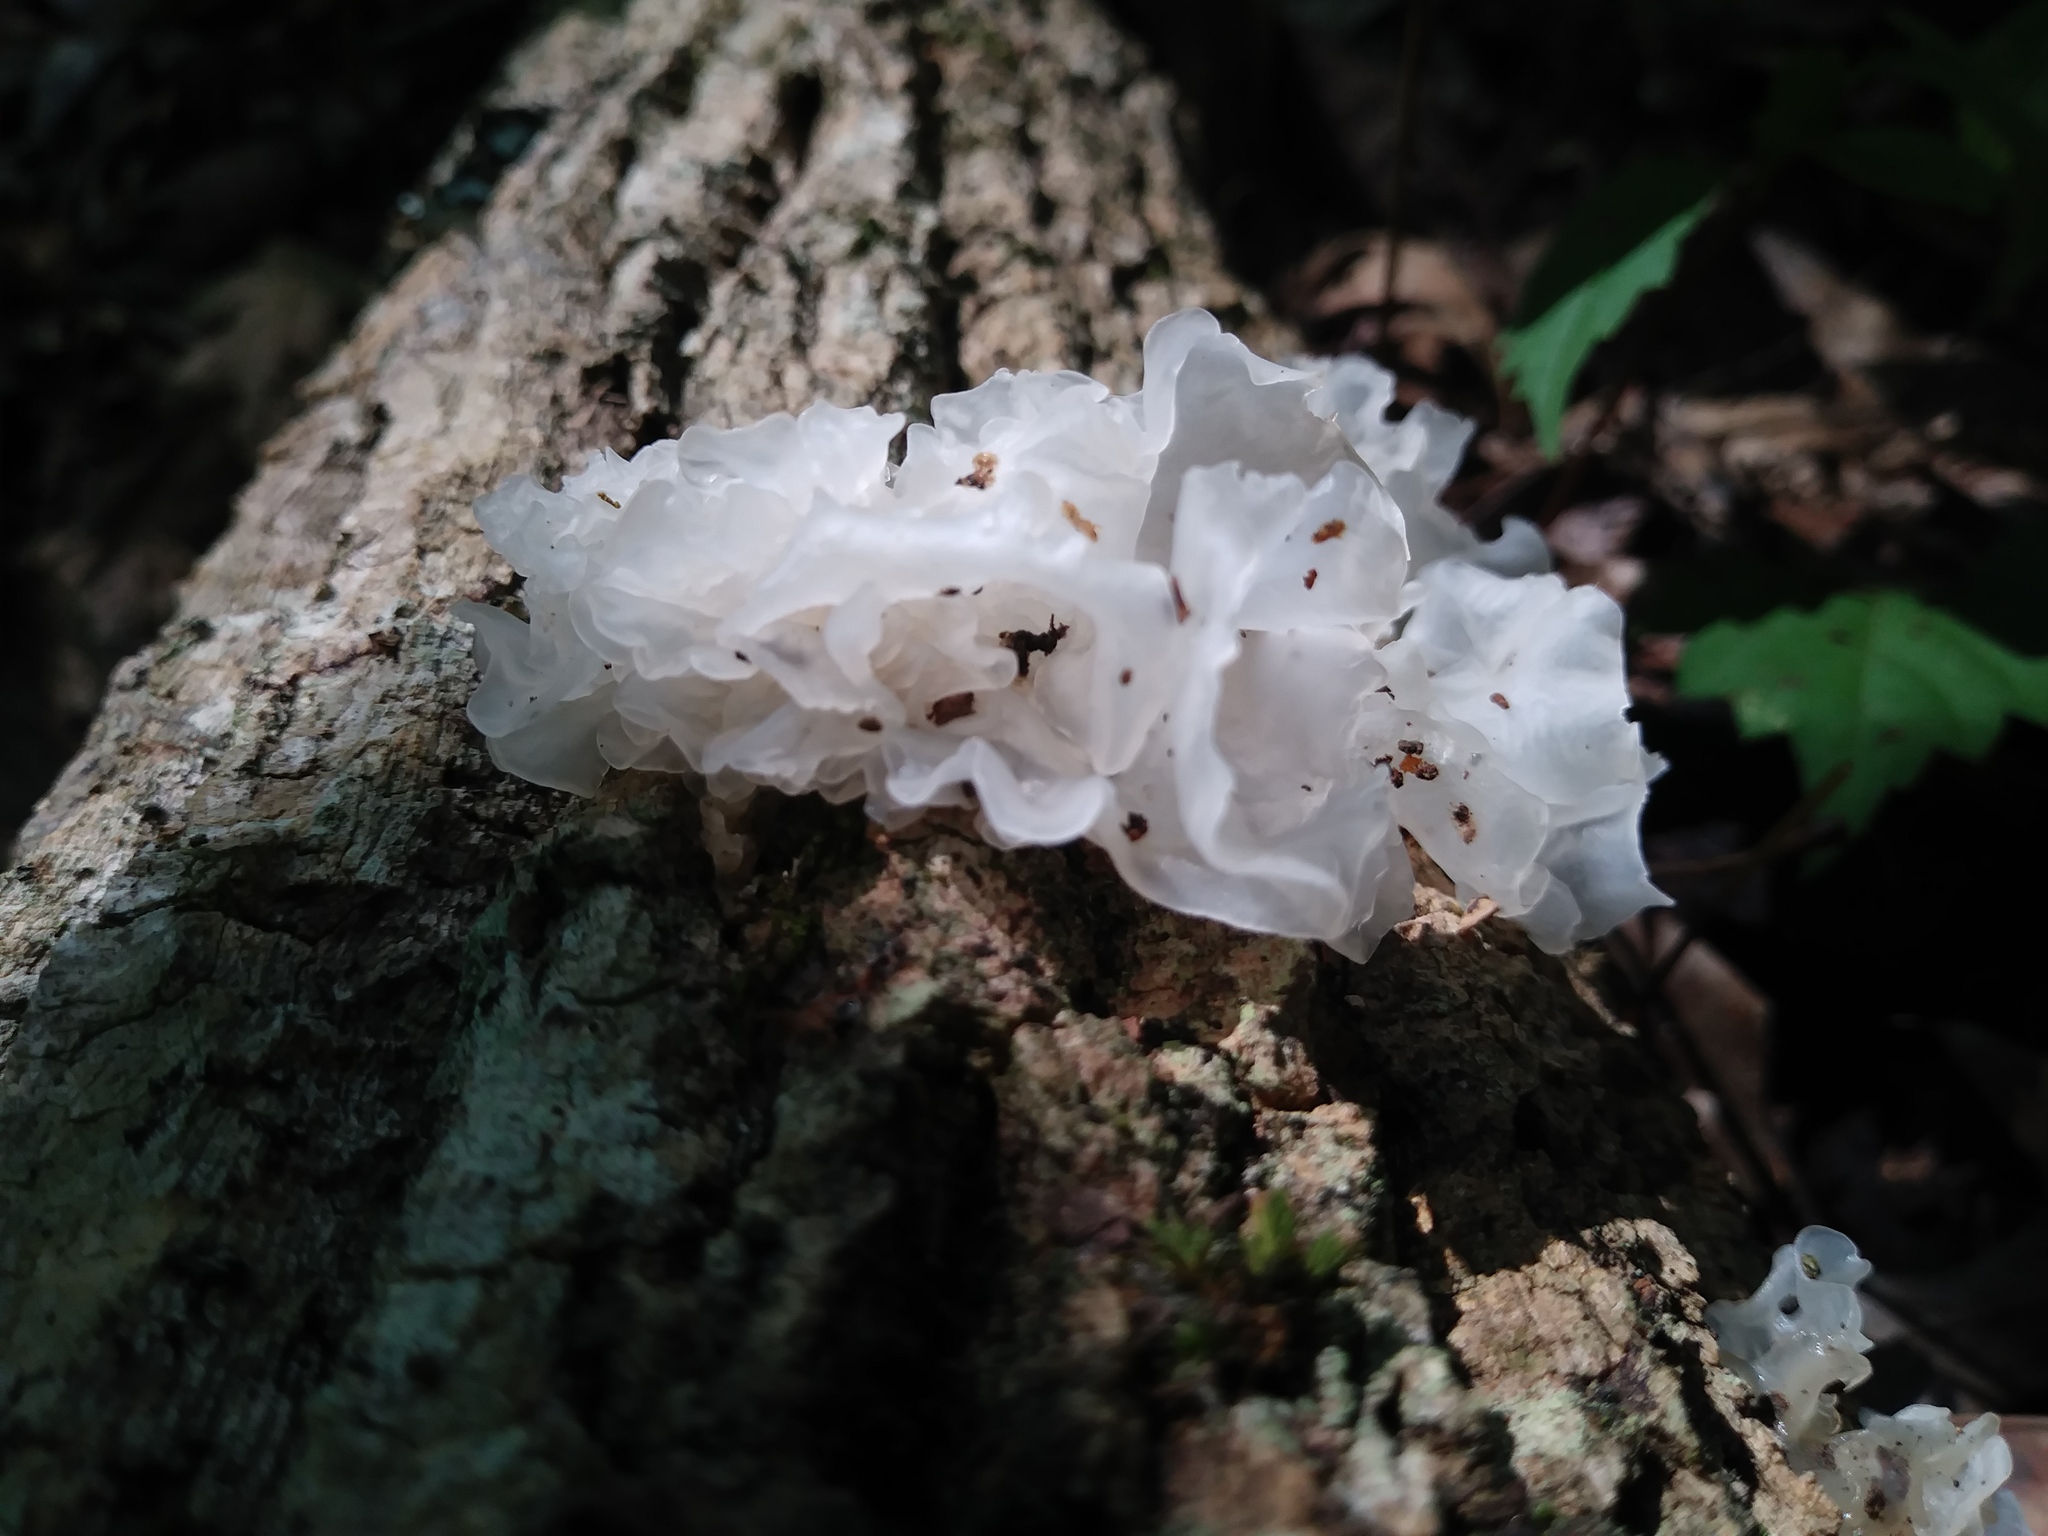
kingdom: Fungi
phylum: Basidiomycota
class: Tremellomycetes
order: Tremellales
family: Tremellaceae
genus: Tremella
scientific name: Tremella fuciformis
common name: Snow fungus
